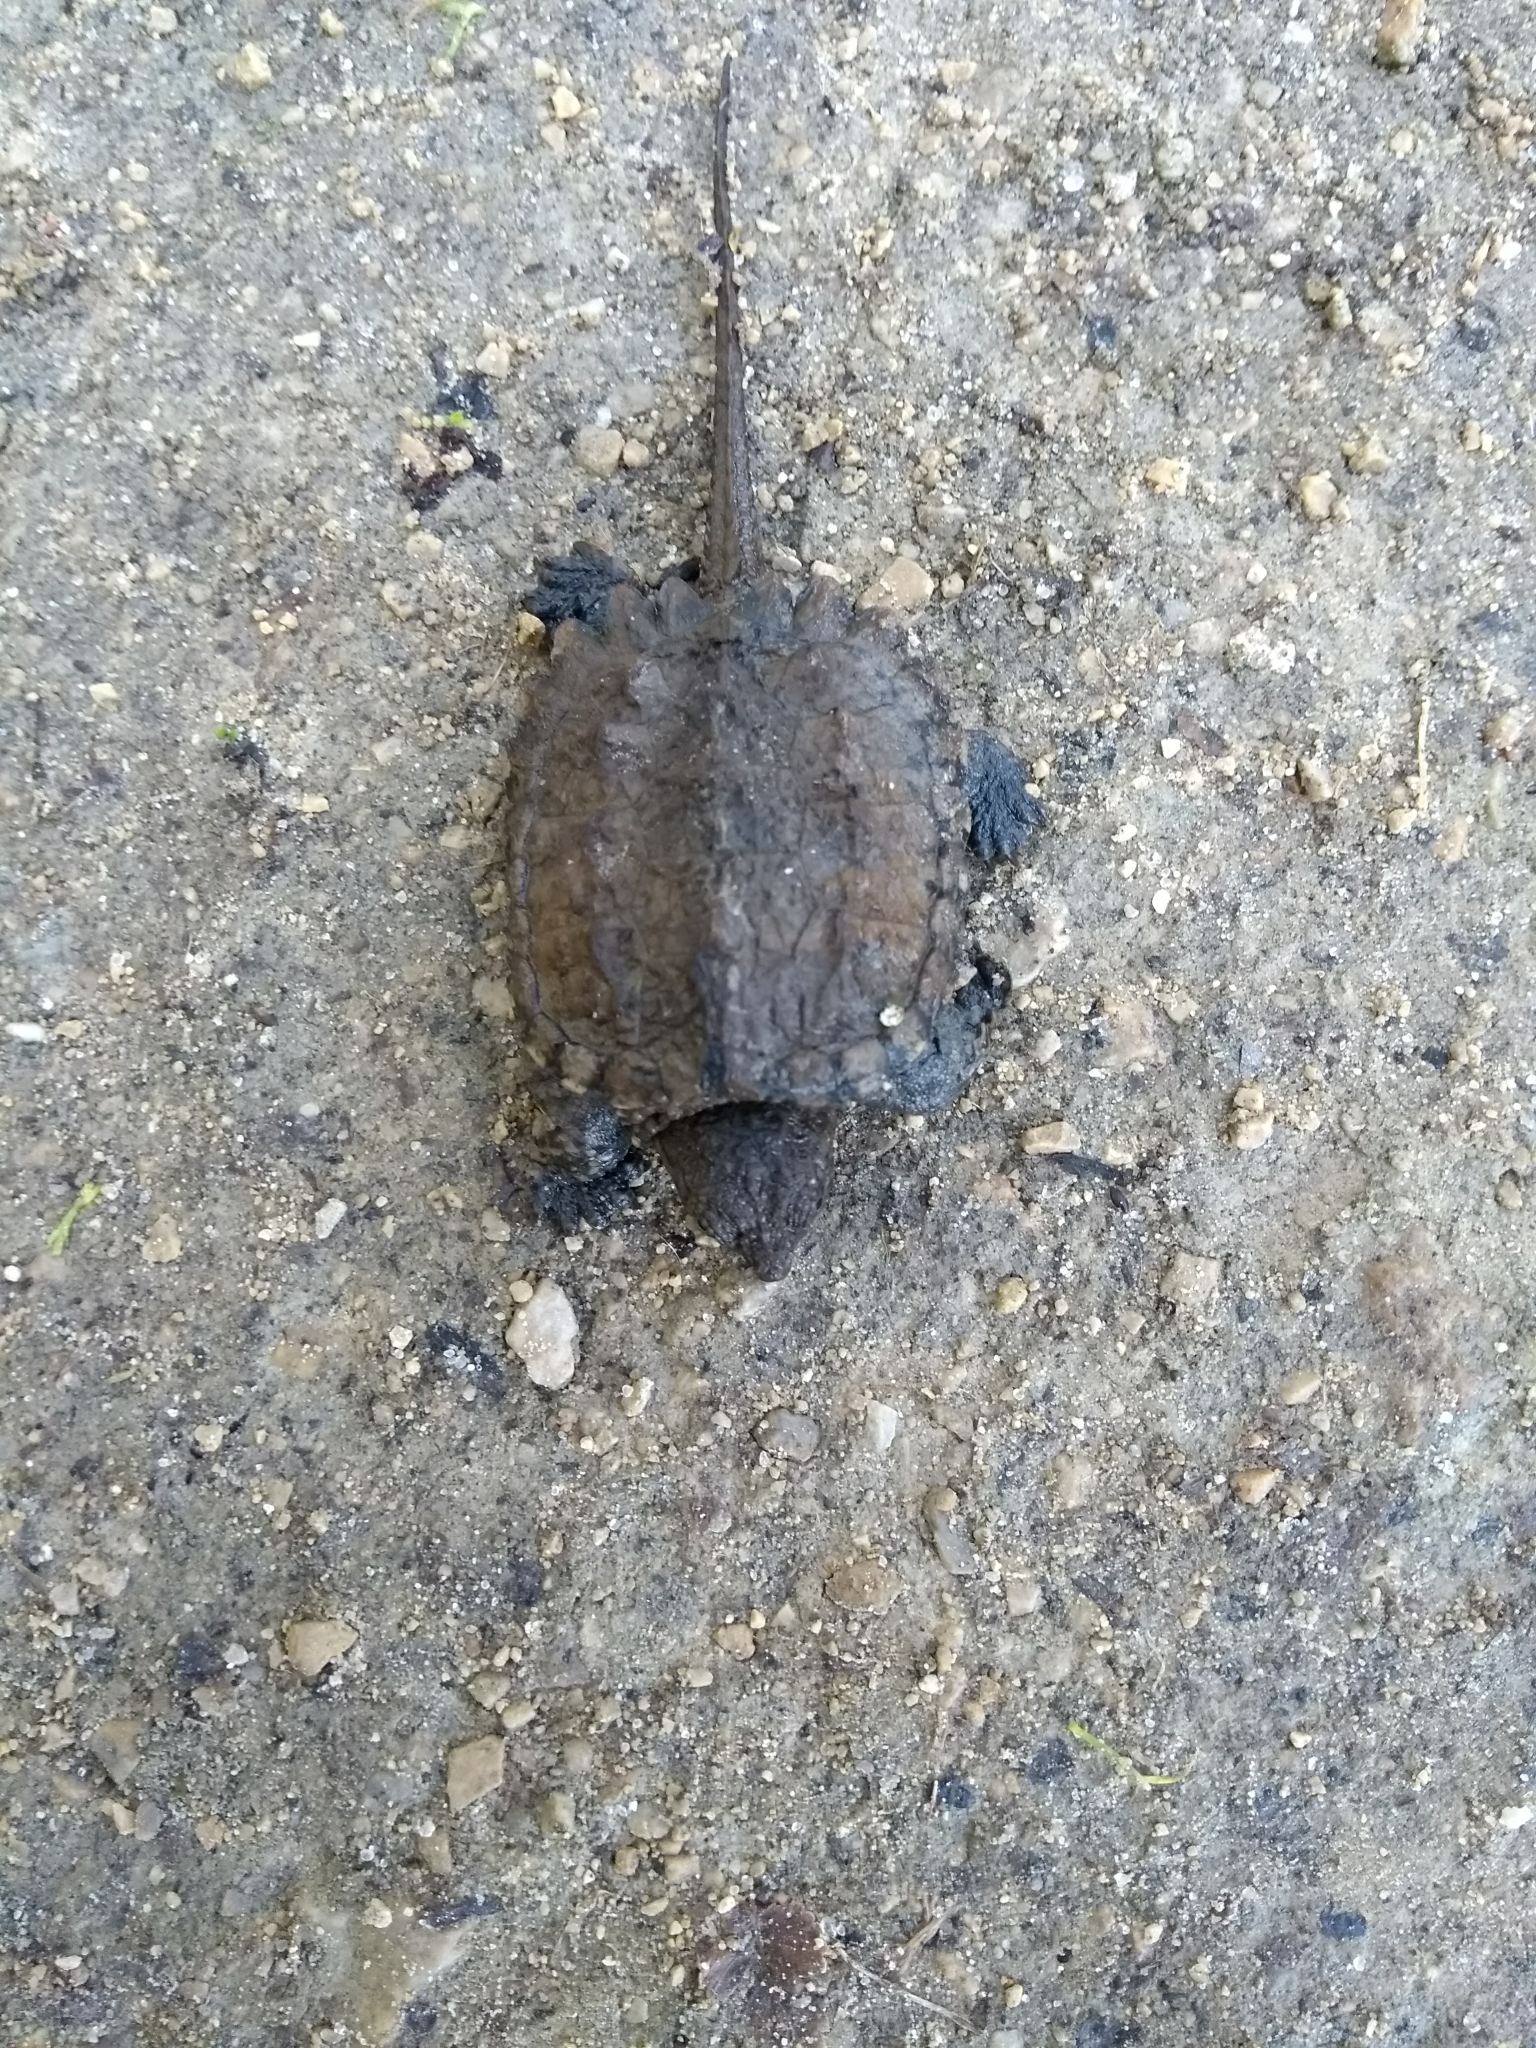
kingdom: Animalia
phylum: Chordata
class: Testudines
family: Chelydridae
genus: Chelydra
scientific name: Chelydra serpentina
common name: Common snapping turtle
